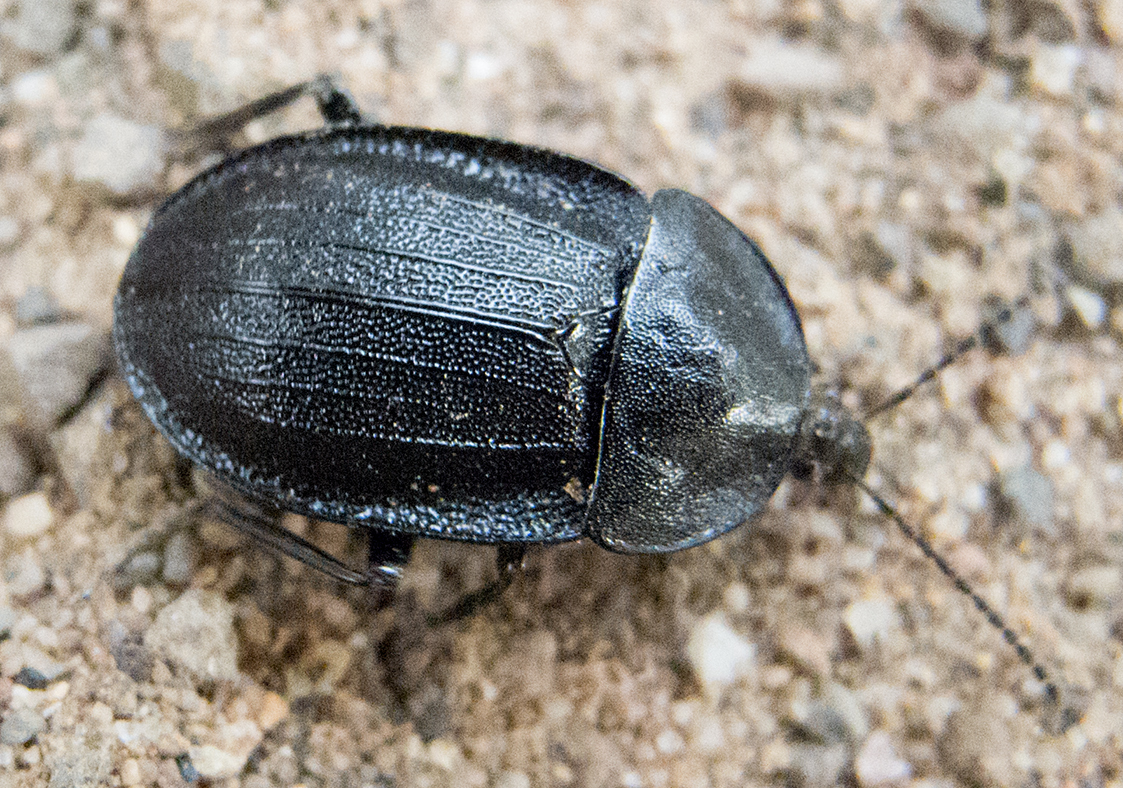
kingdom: Animalia
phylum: Arthropoda
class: Insecta
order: Coleoptera
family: Staphylinidae
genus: Silpha
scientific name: Silpha atrata
